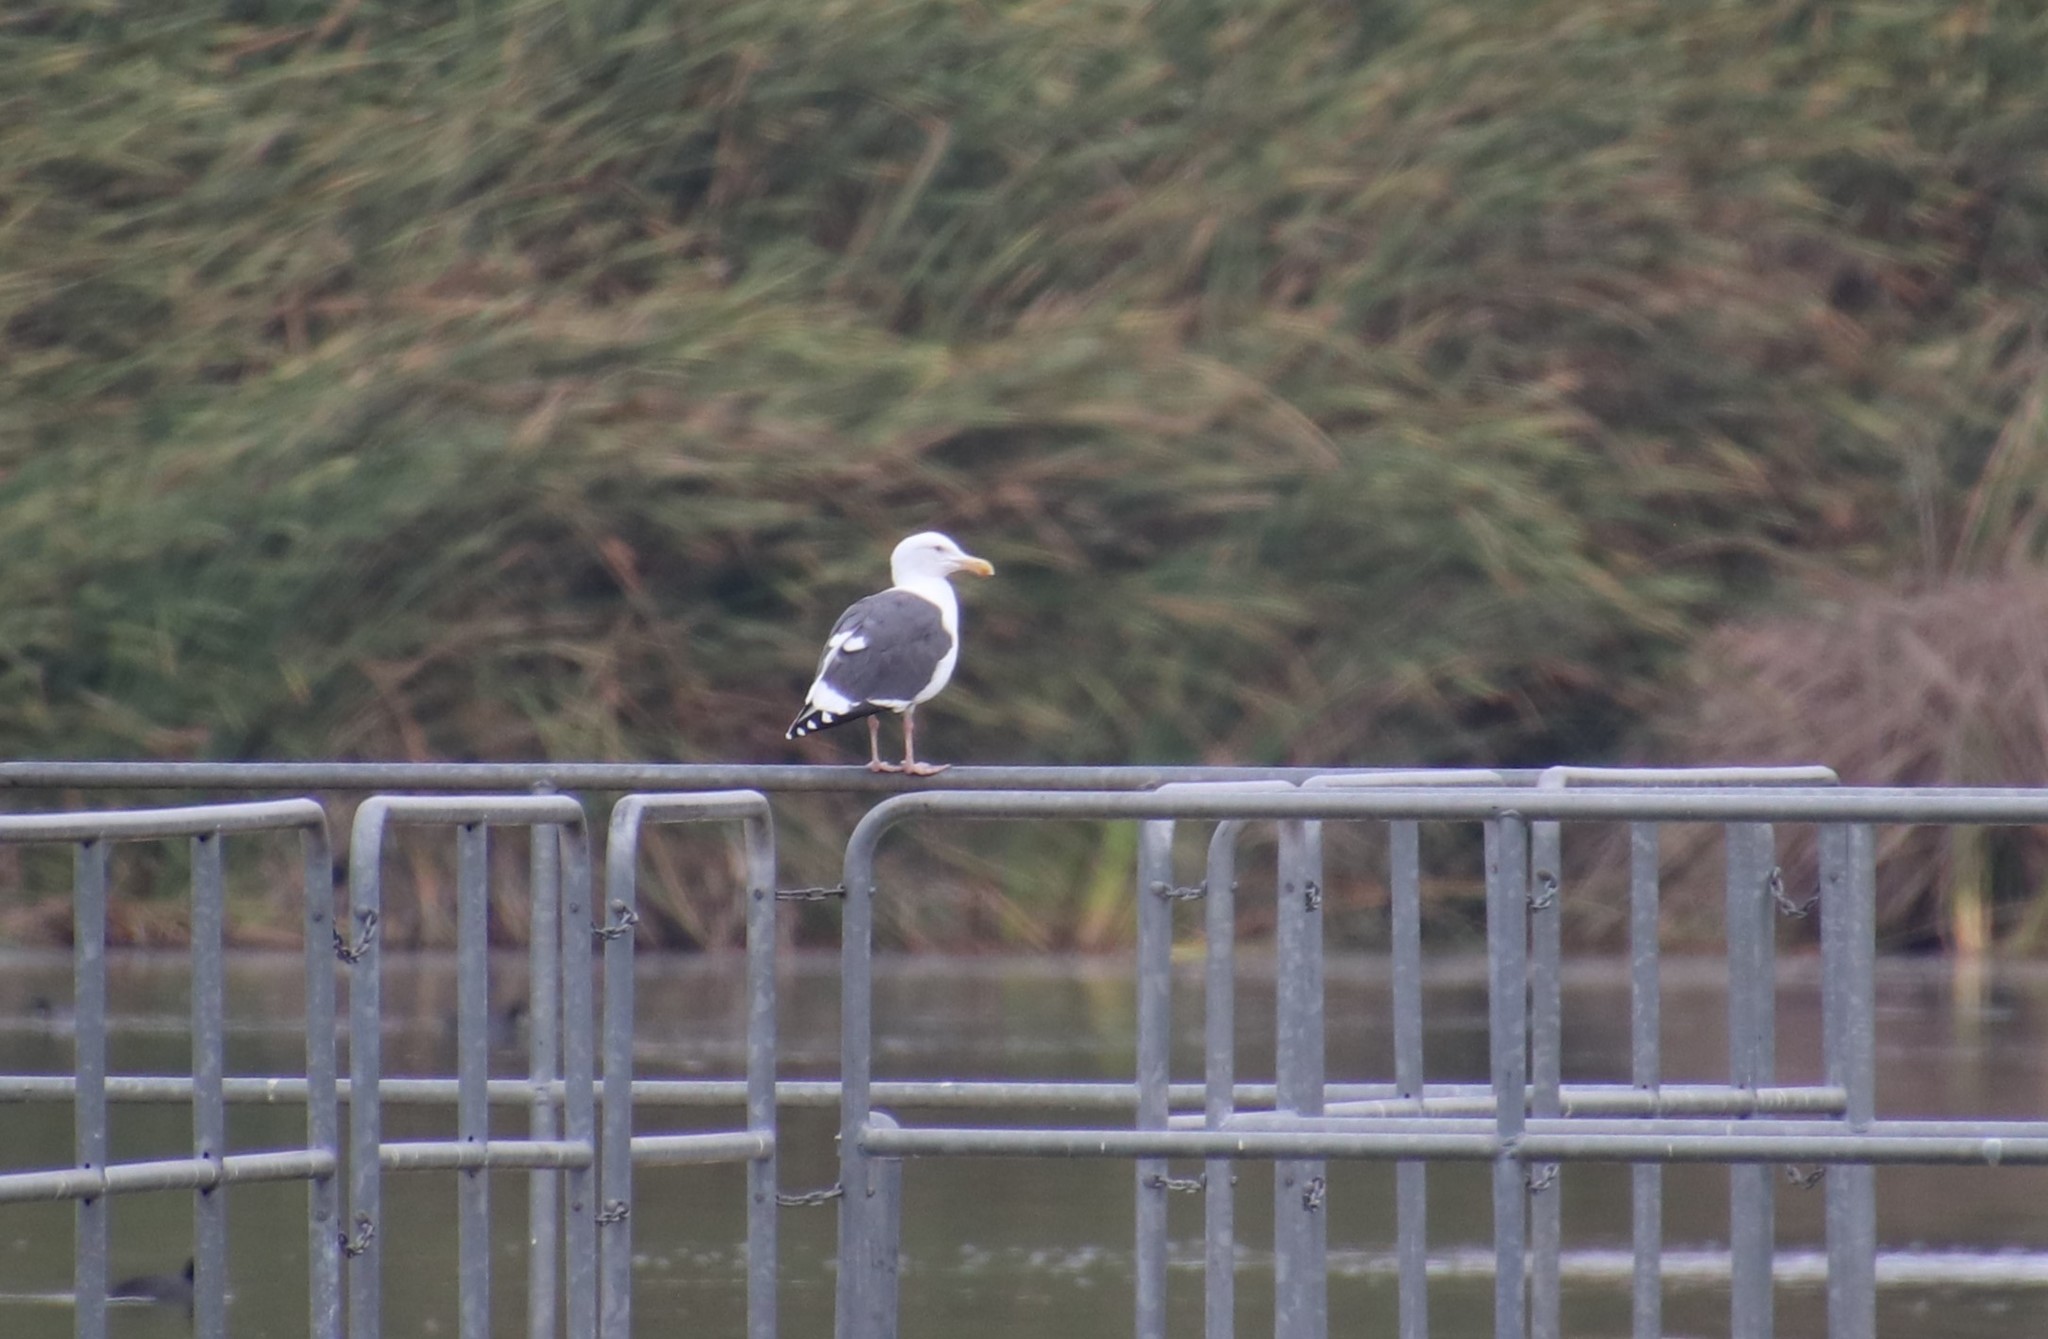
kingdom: Animalia
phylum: Chordata
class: Aves
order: Charadriiformes
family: Laridae
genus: Larus
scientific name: Larus occidentalis
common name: Western gull
